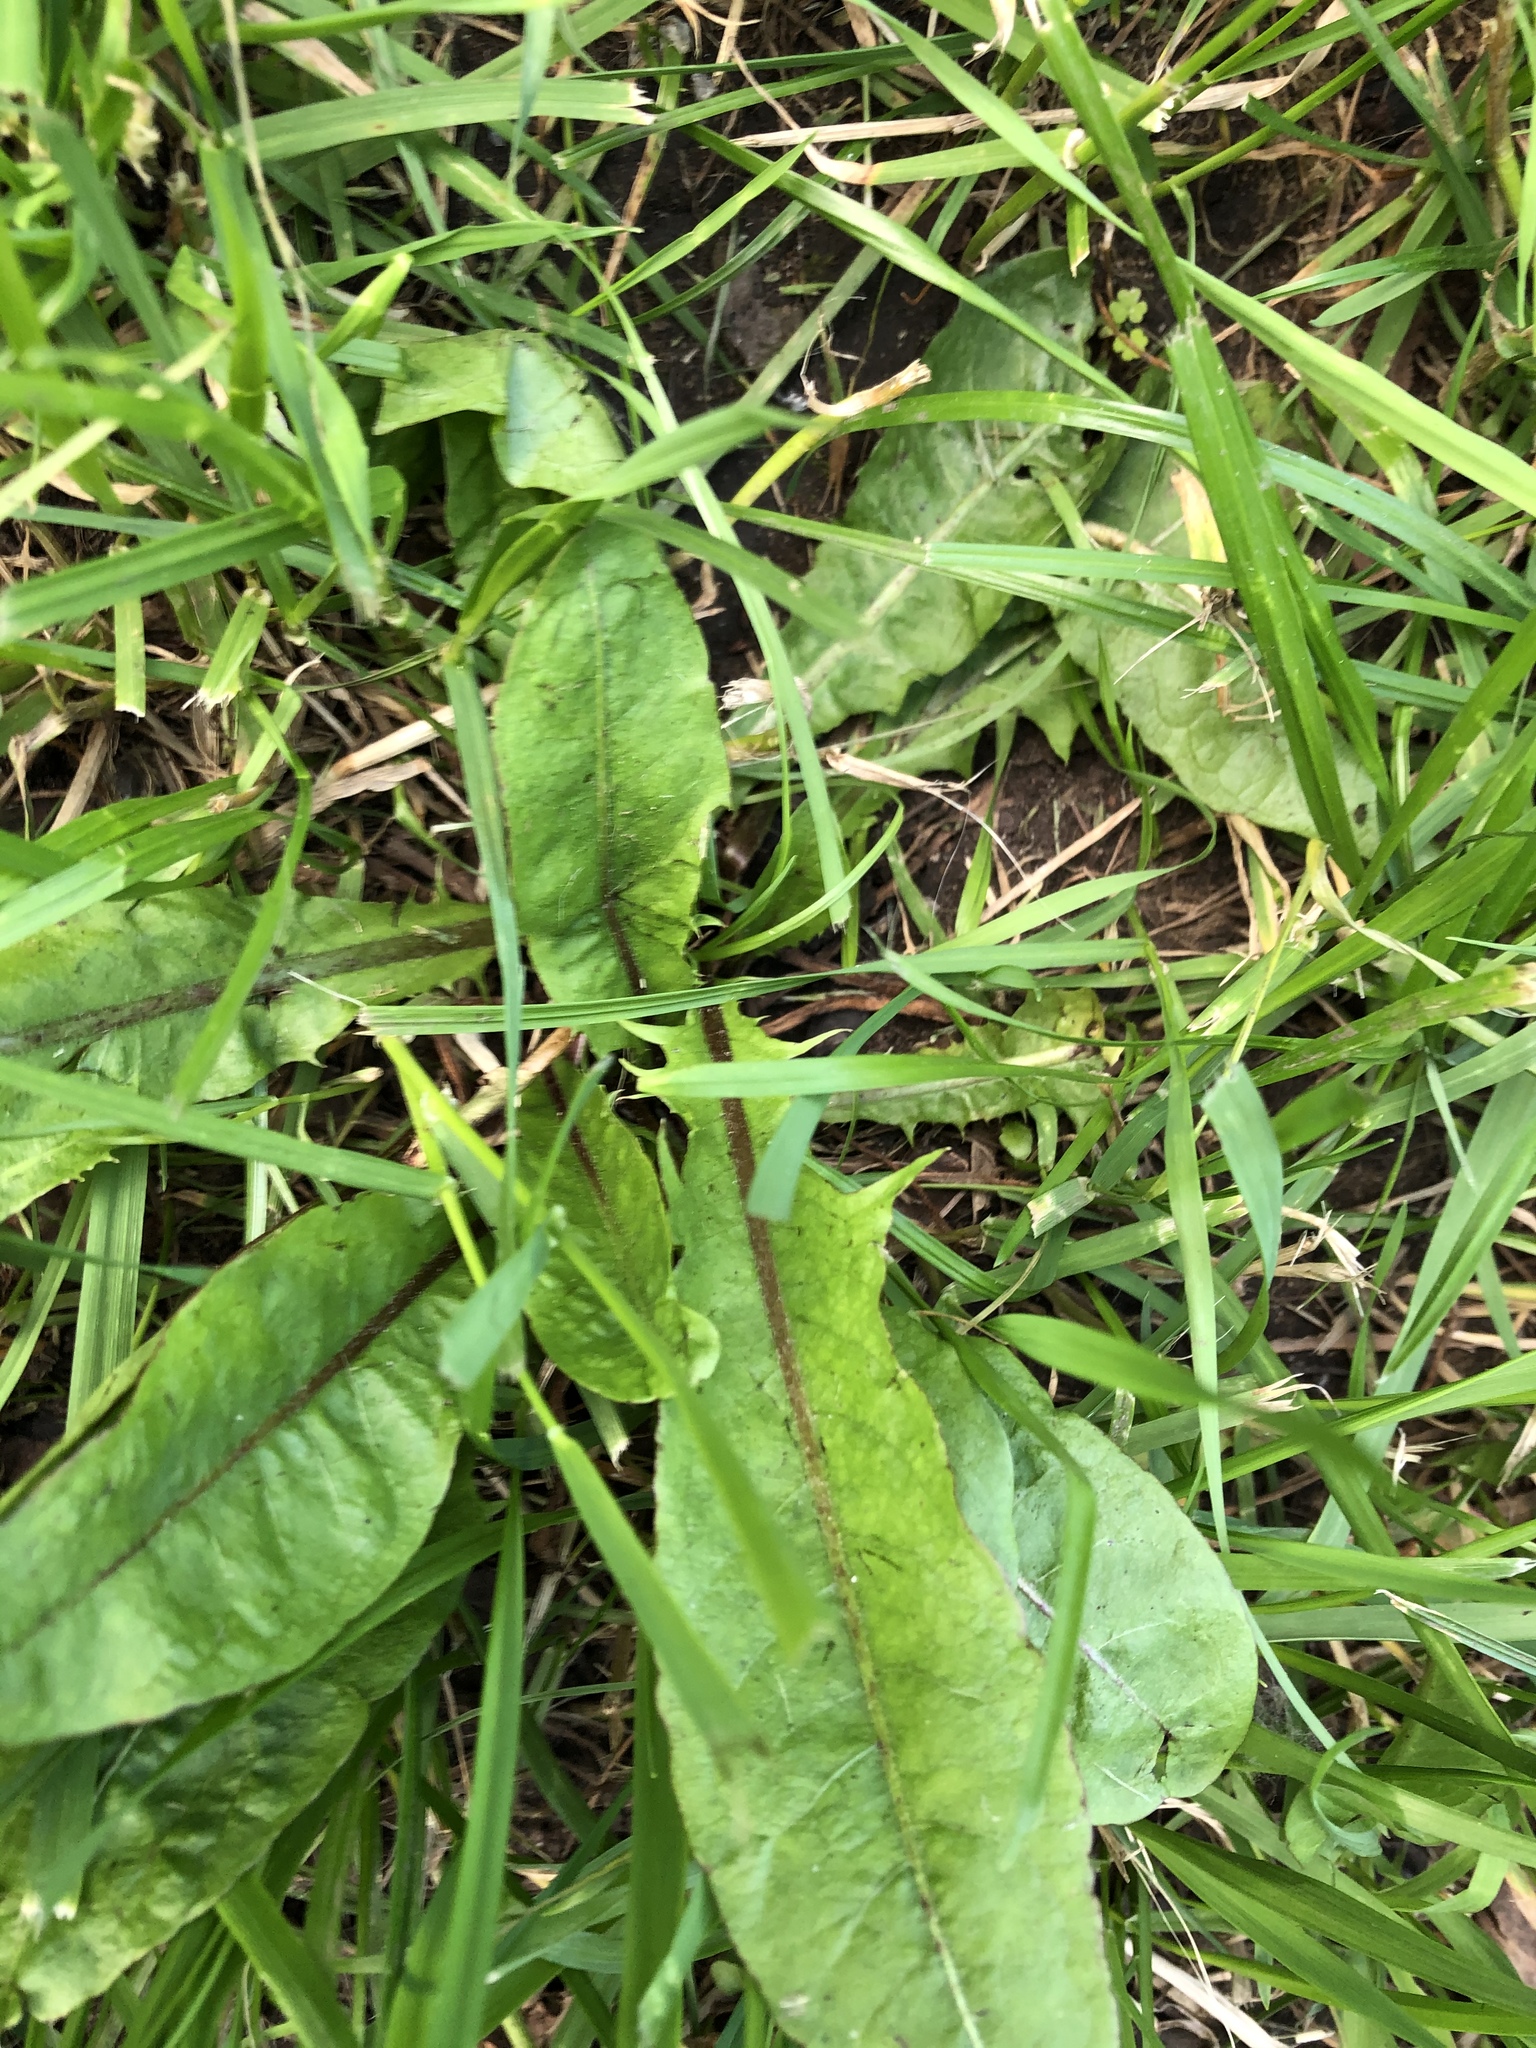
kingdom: Plantae
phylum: Tracheophyta
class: Magnoliopsida
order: Asterales
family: Asteraceae
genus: Taraxacum
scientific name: Taraxacum officinale
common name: Common dandelion
